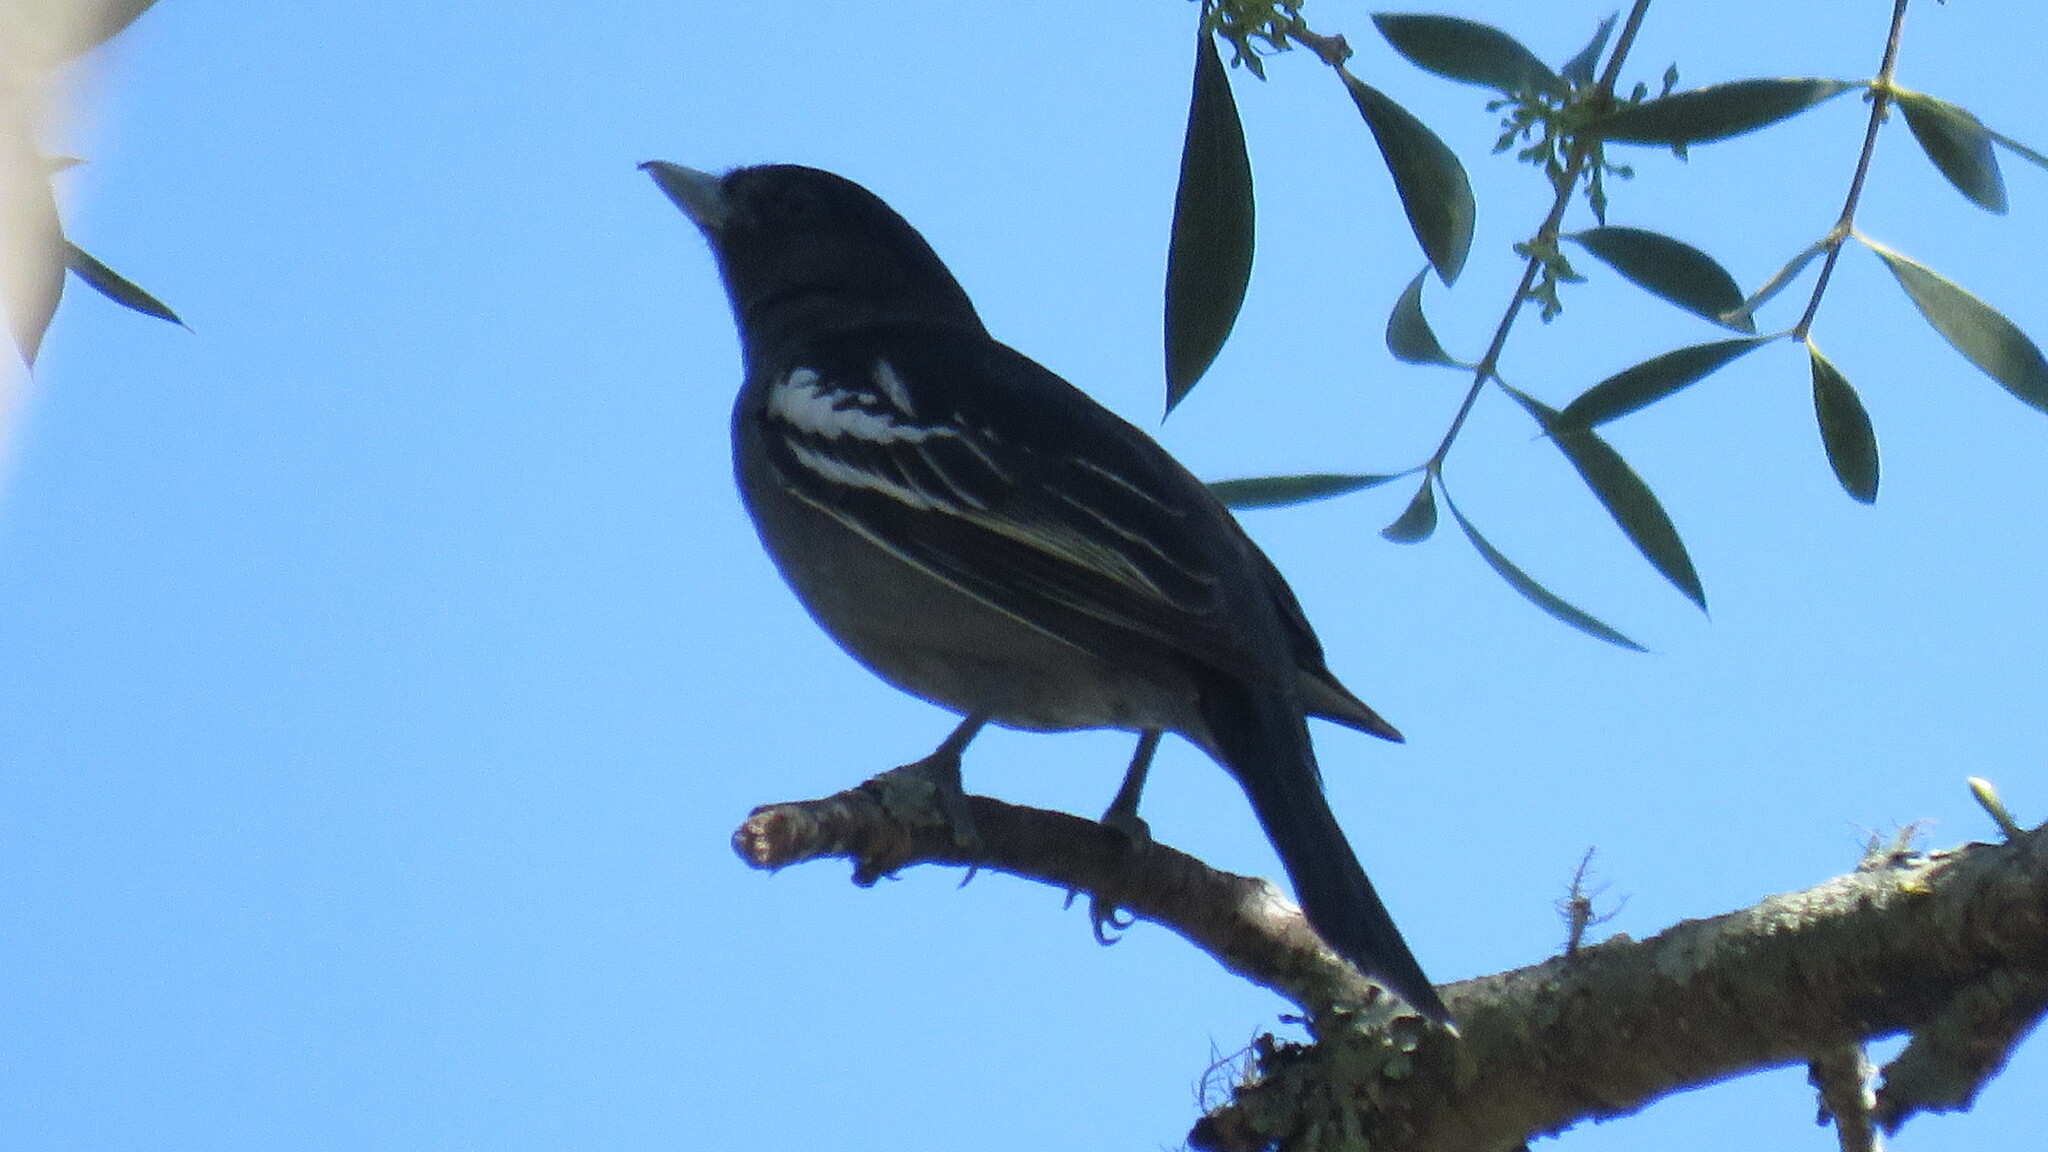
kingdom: Animalia
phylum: Chordata
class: Aves
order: Passeriformes
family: Cotingidae
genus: Pachyramphus
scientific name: Pachyramphus polychopterus
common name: White-winged becard
